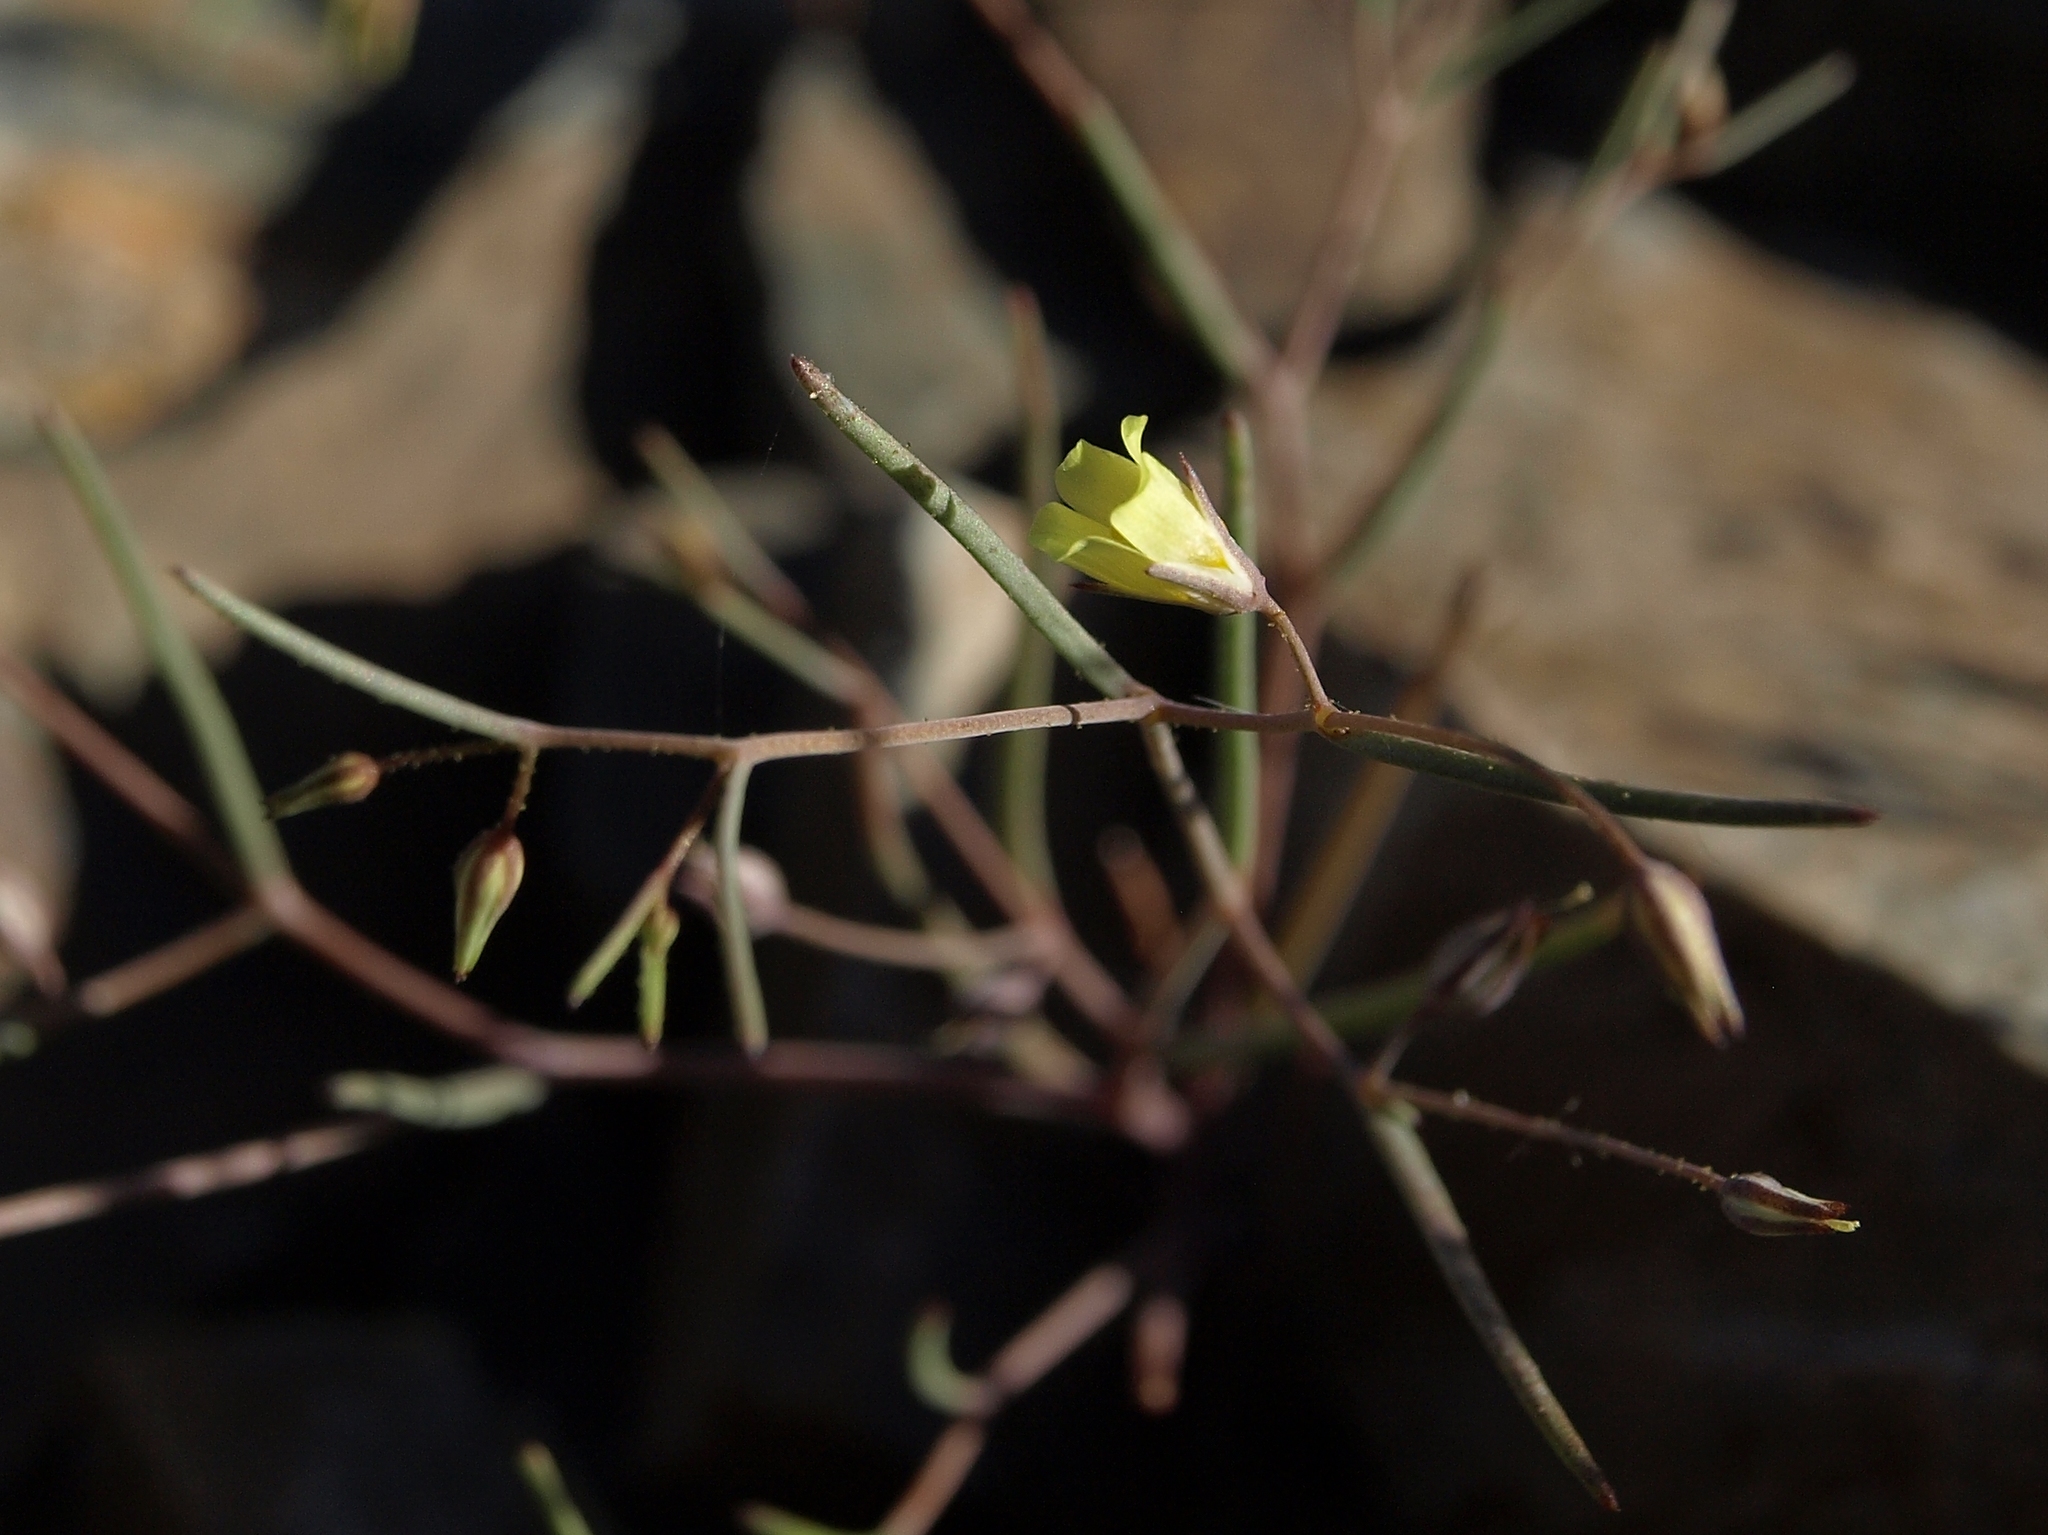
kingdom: Plantae
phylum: Tracheophyta
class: Magnoliopsida
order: Ericales
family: Polemoniaceae
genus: Linanthus
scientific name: Linanthus filiformis
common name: Yellow gilia
